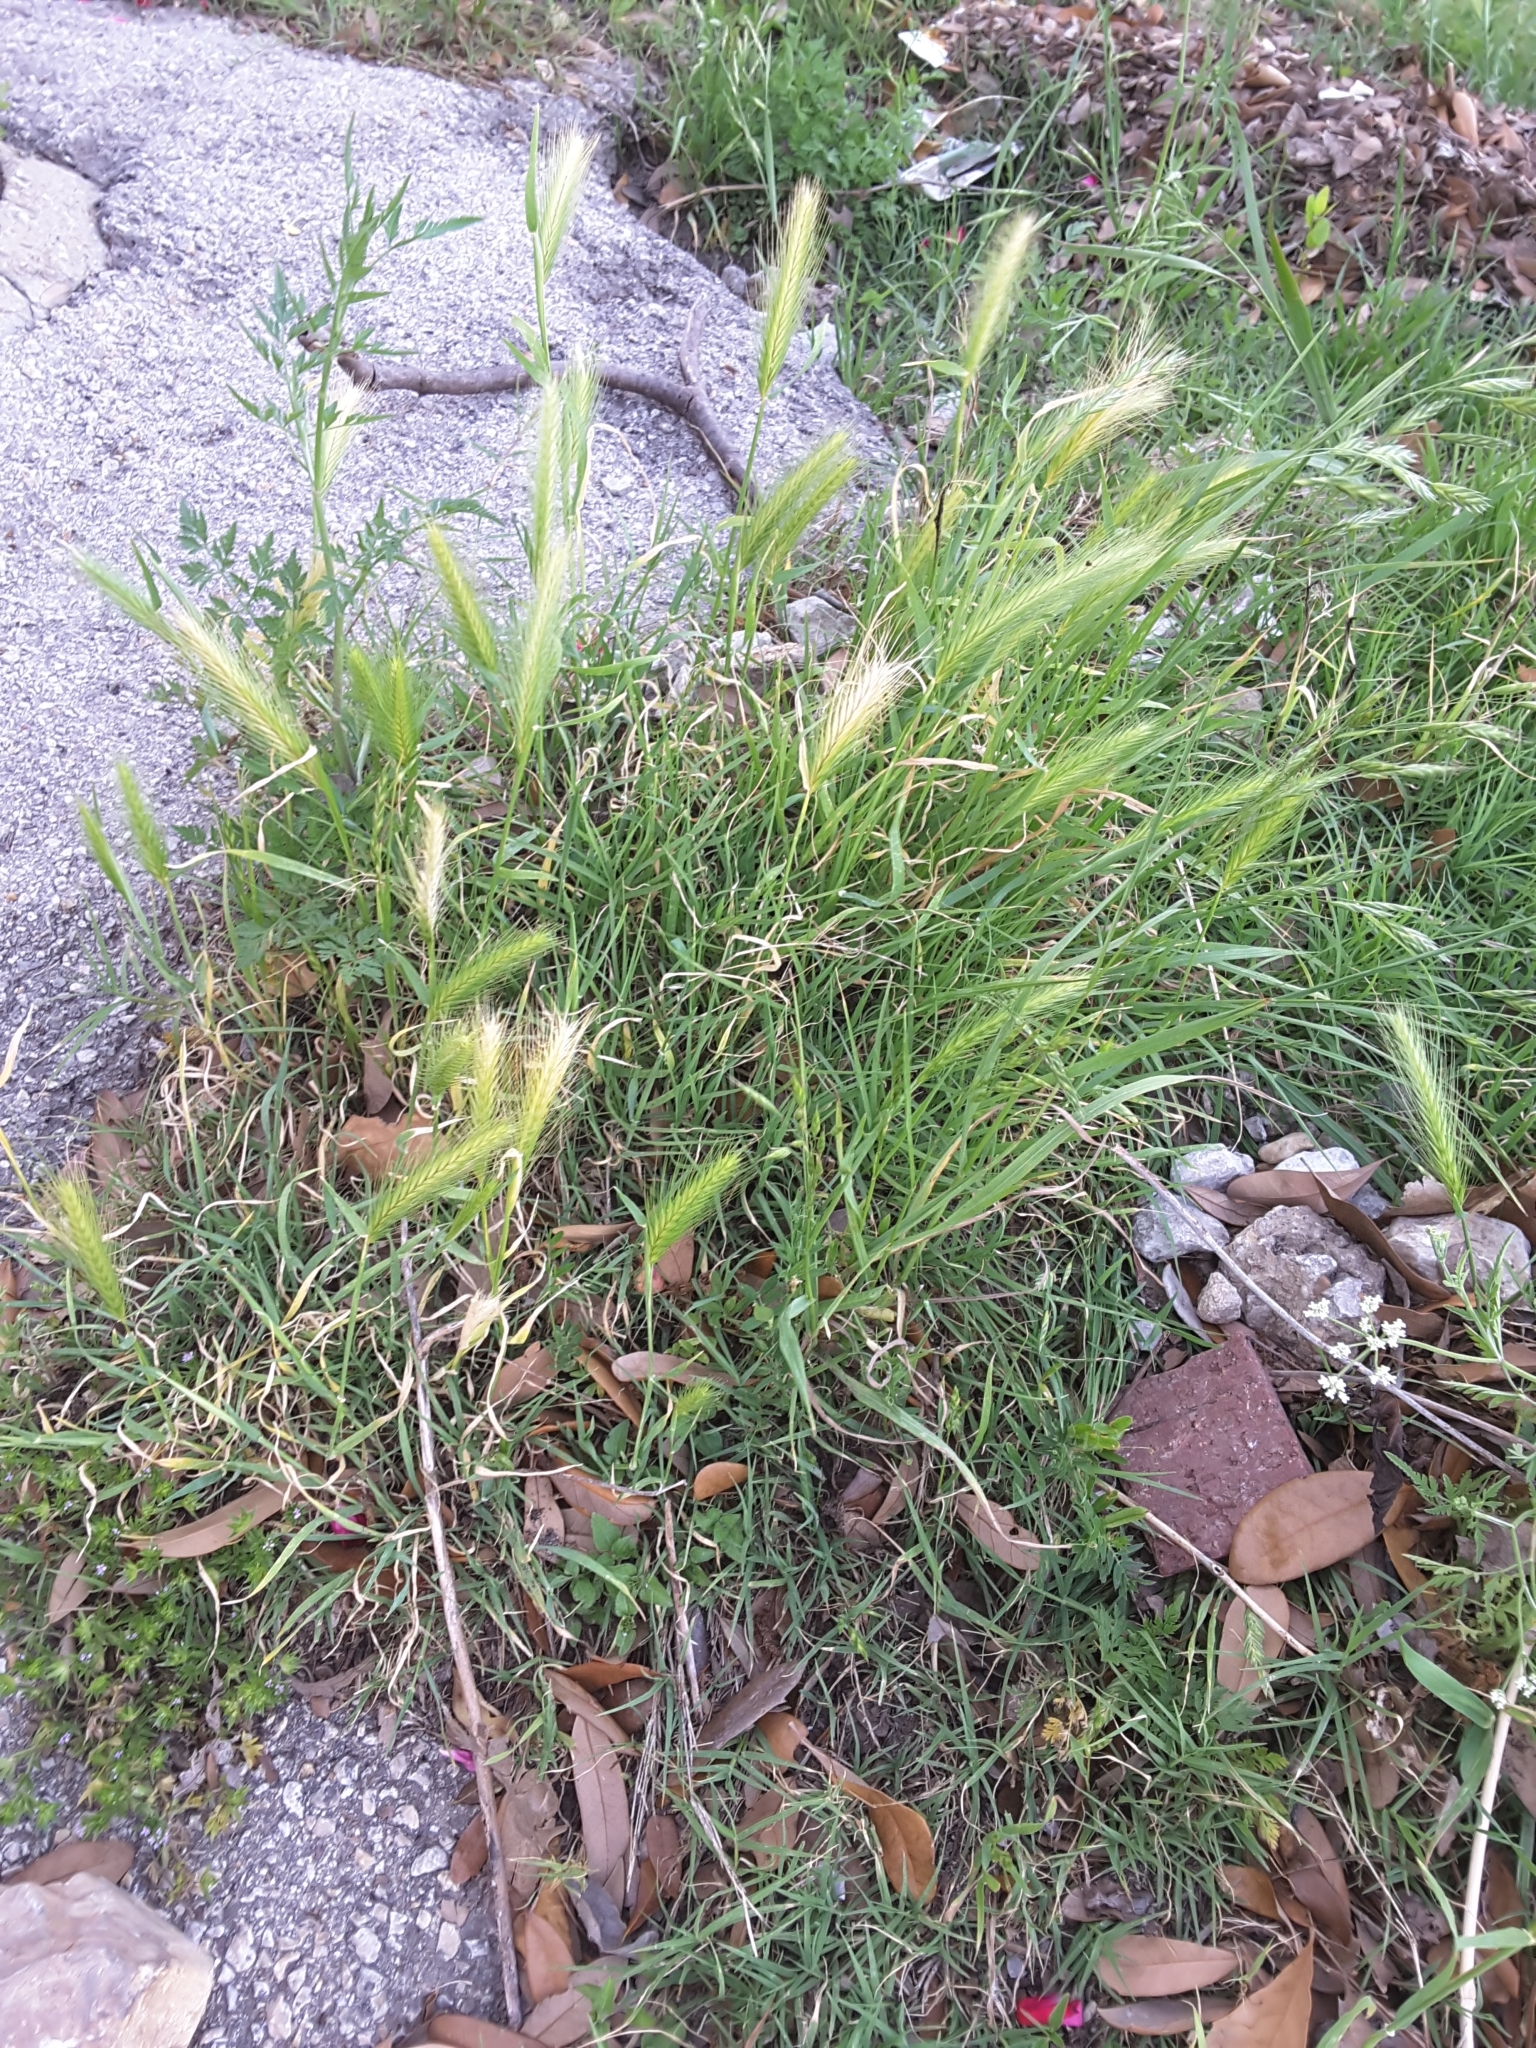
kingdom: Plantae
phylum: Tracheophyta
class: Liliopsida
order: Poales
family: Poaceae
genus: Hordeum
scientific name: Hordeum pusillum
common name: Little barley
